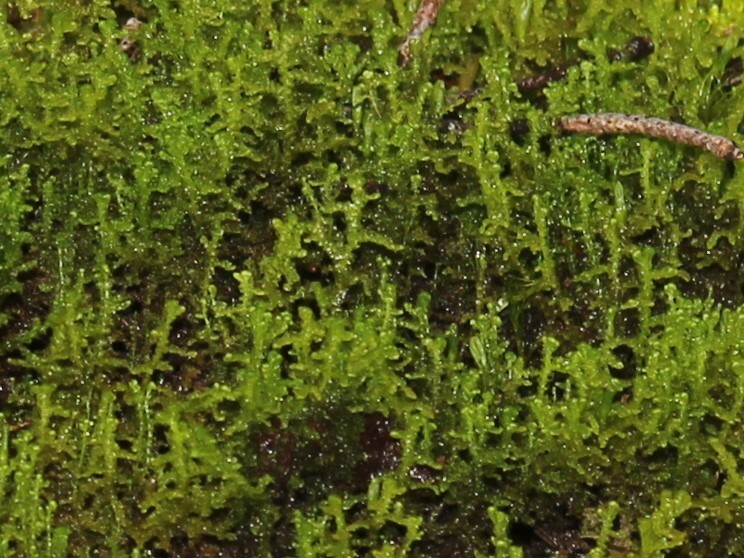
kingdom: Plantae
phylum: Marchantiophyta
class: Jungermanniopsida
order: Ptilidiales
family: Ptilidiaceae
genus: Ptilidium
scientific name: Ptilidium ciliare
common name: Ciliate fringewort
